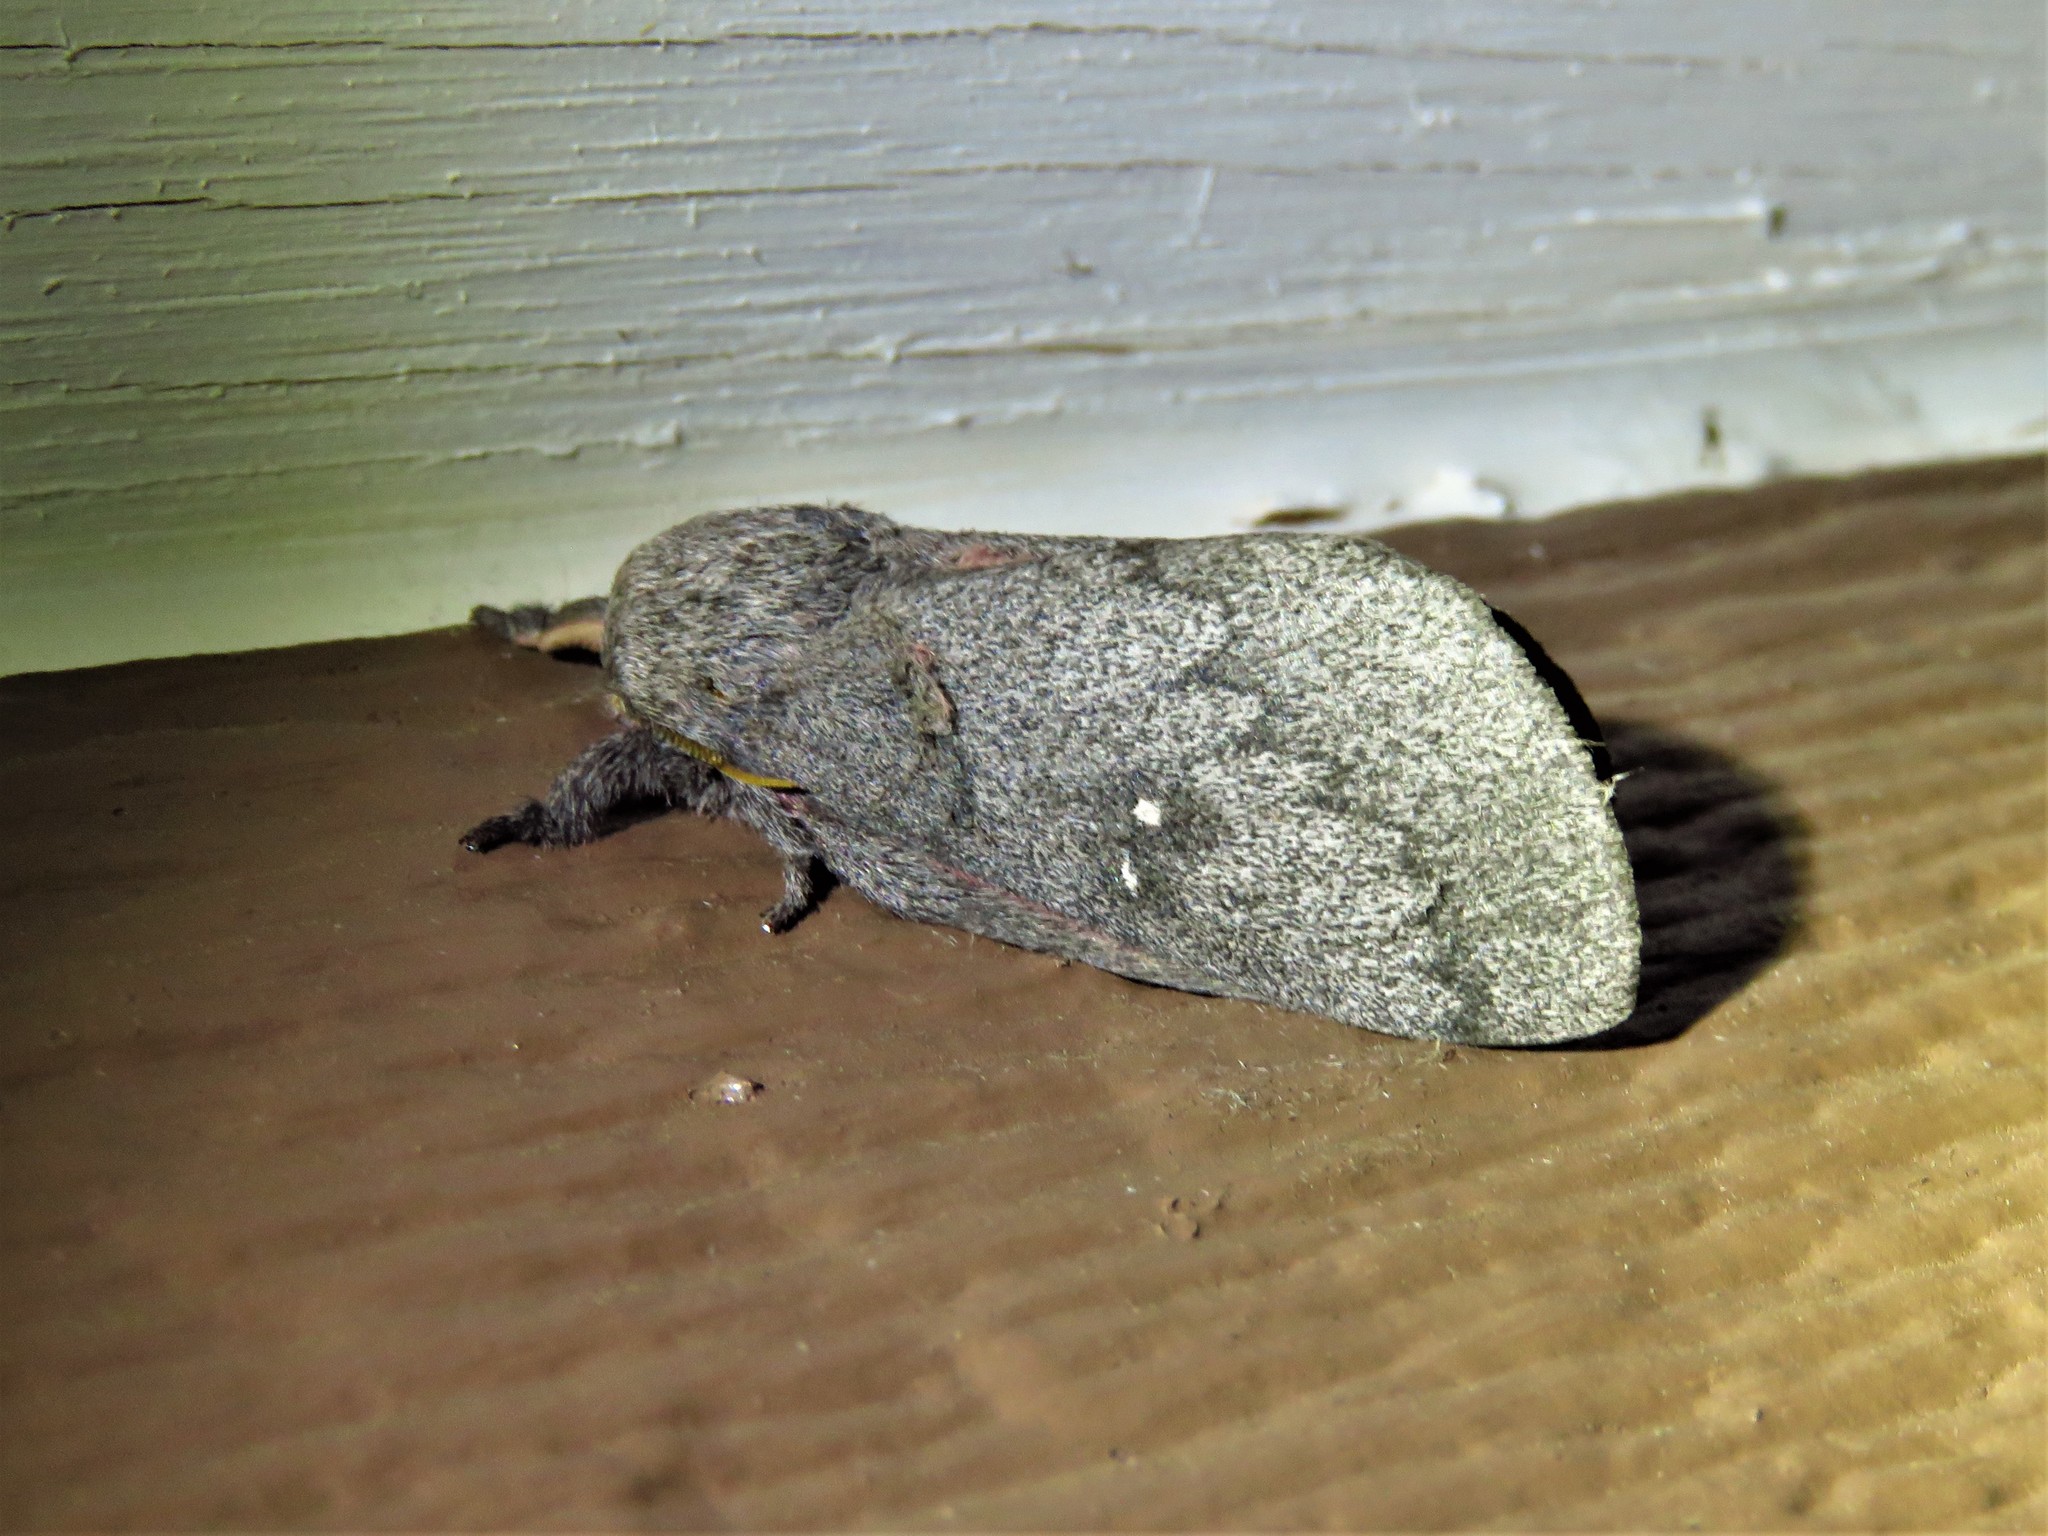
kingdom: Animalia
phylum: Arthropoda
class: Insecta
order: Lepidoptera
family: Saturniidae
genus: Syssphinx
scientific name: Syssphinx heiligbrodti
